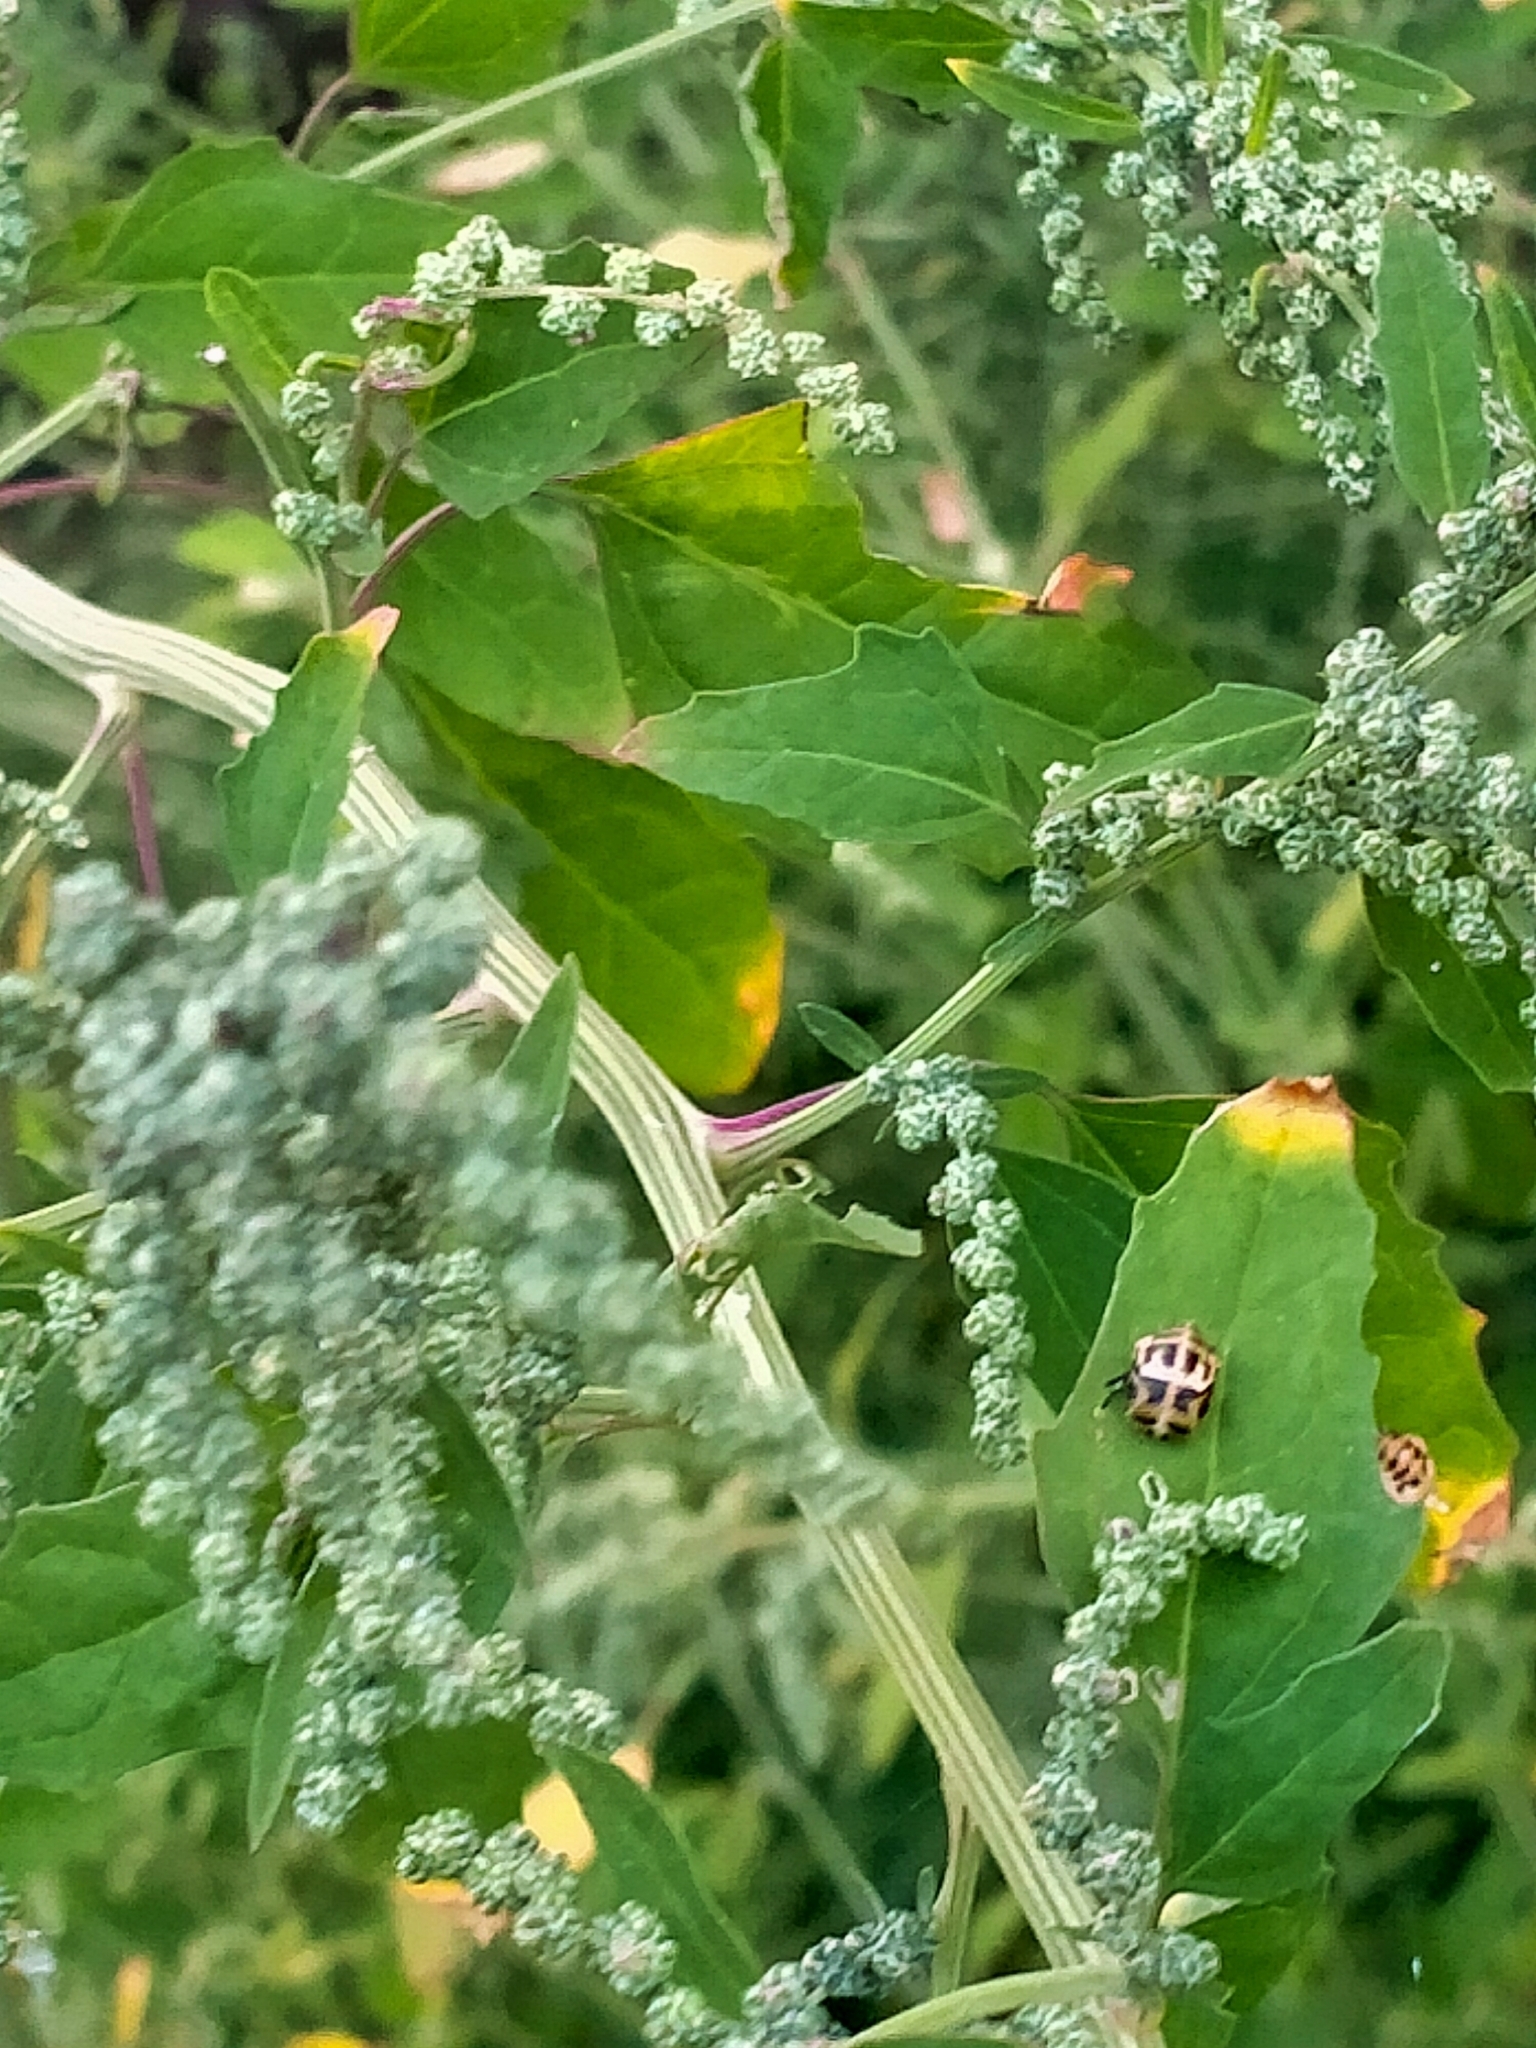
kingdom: Animalia
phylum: Arthropoda
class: Insecta
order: Coleoptera
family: Coccinellidae
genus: Harmonia
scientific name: Harmonia conformis
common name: Common spotted ladybird beetle
